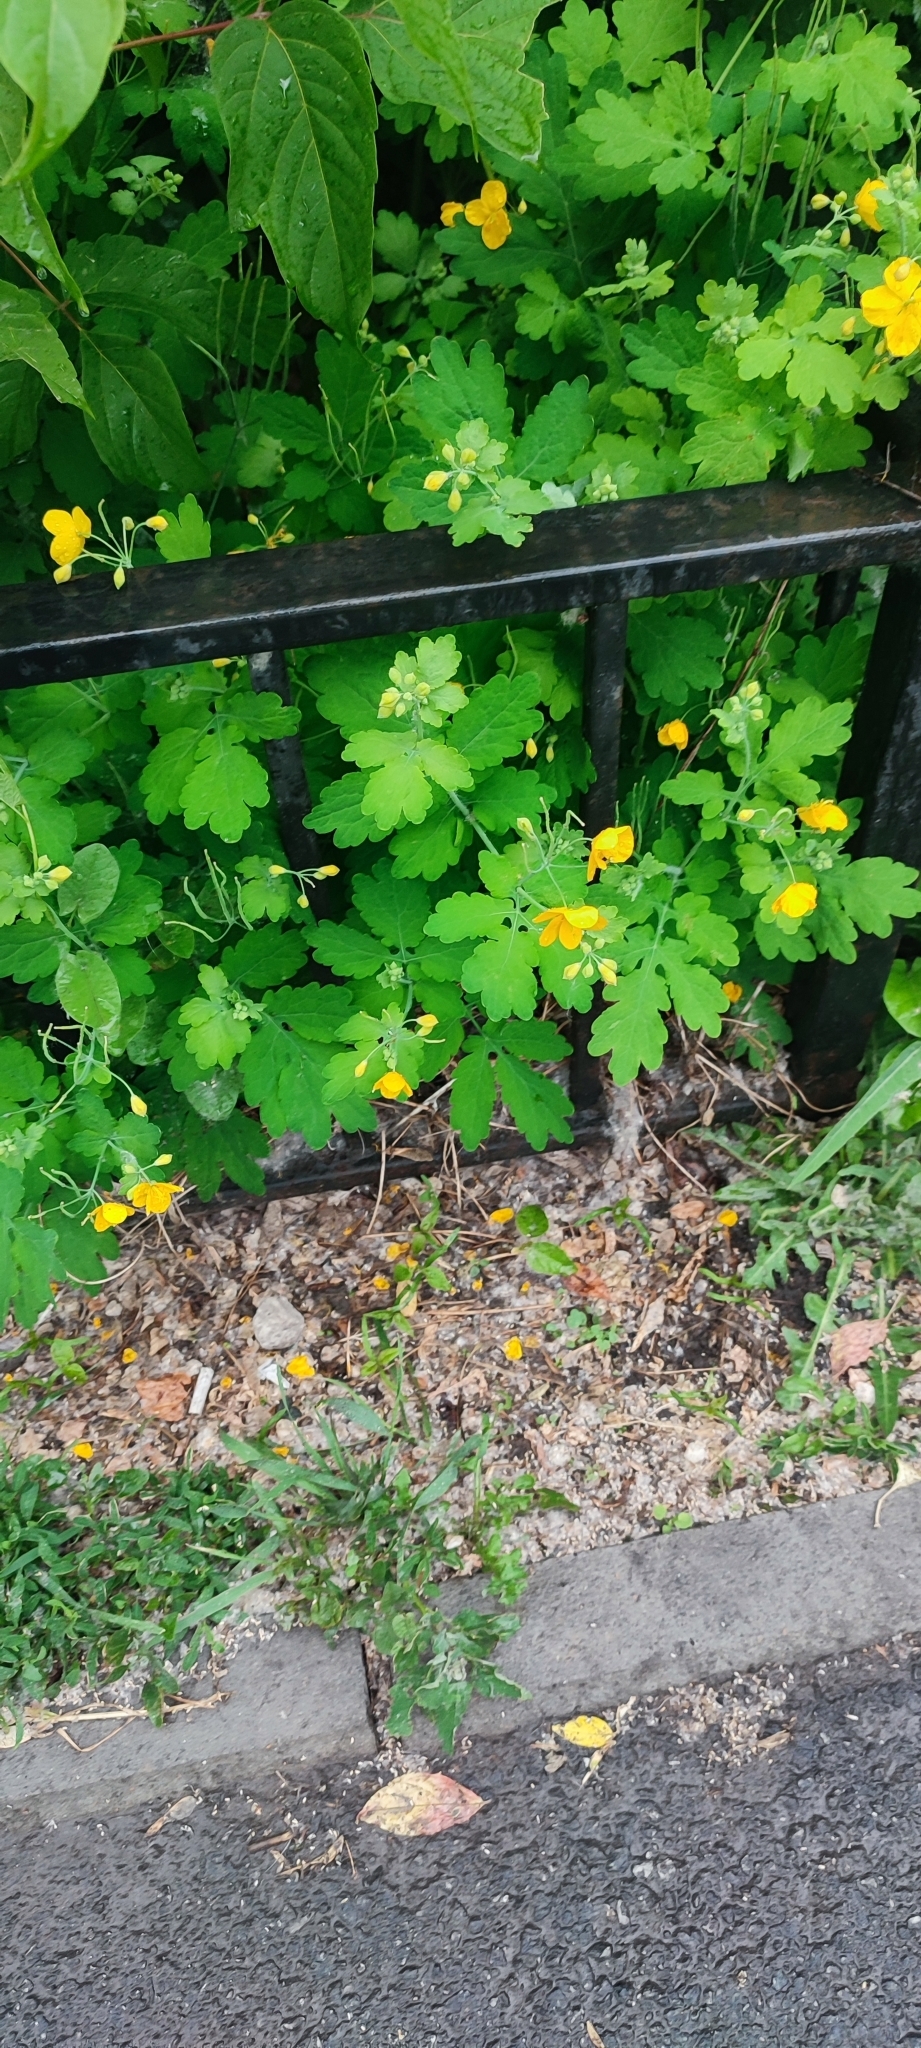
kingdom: Plantae
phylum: Tracheophyta
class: Magnoliopsida
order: Ranunculales
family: Papaveraceae
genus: Chelidonium
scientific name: Chelidonium majus
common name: Greater celandine
